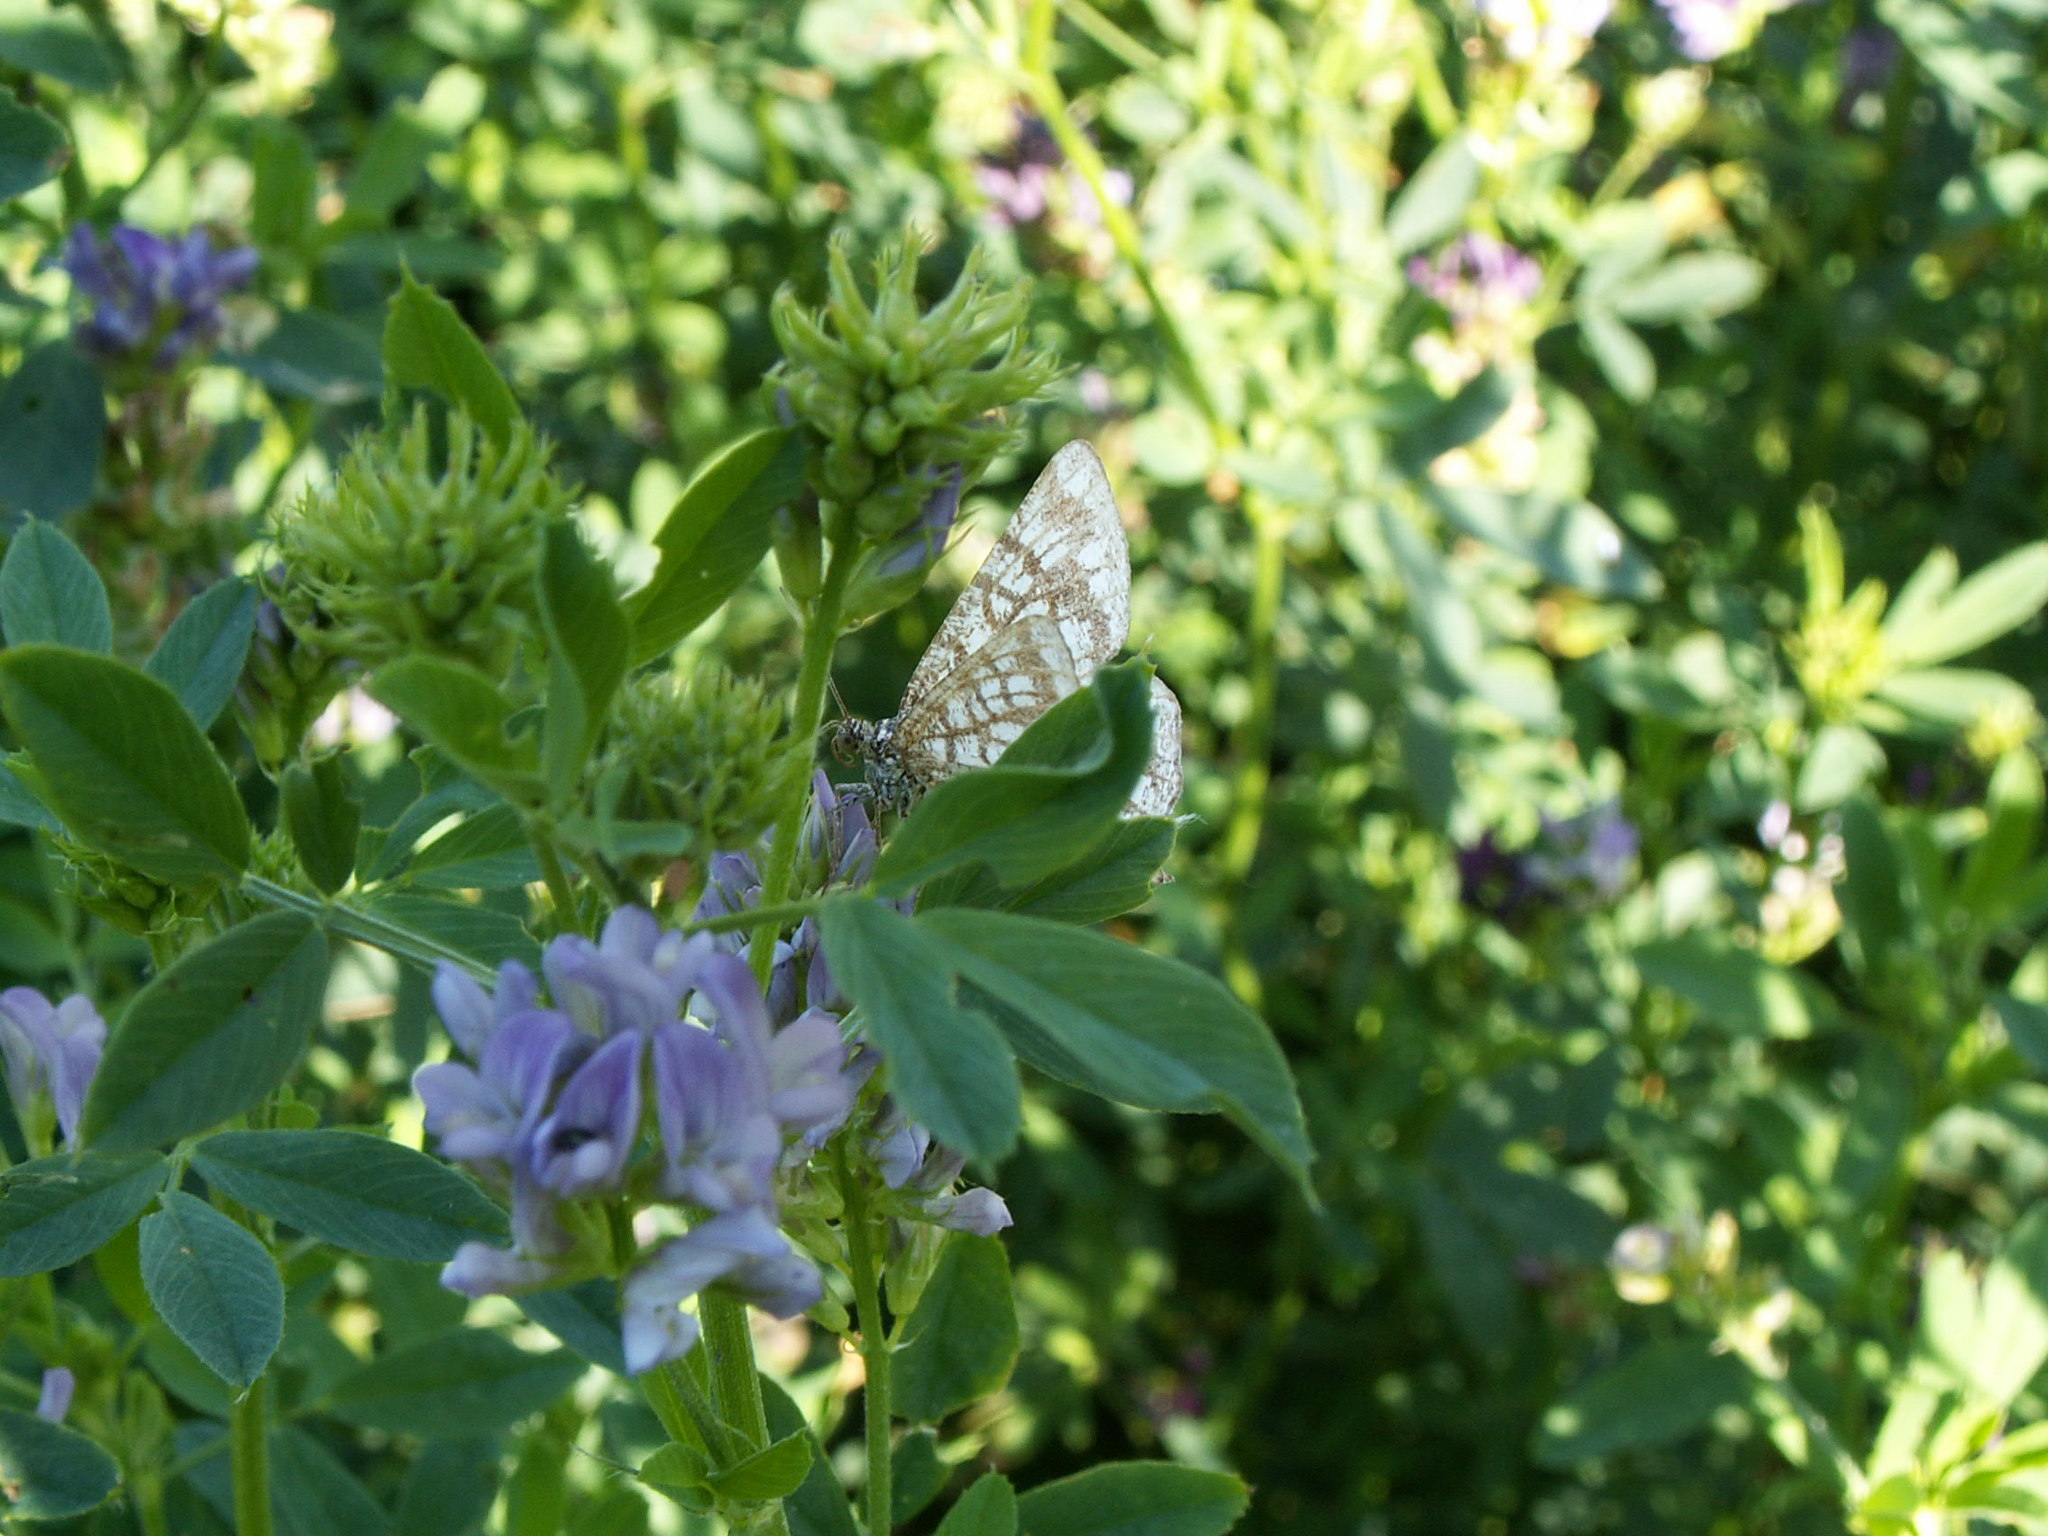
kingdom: Animalia
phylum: Arthropoda
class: Insecta
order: Lepidoptera
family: Geometridae
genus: Chiasmia
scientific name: Chiasmia clathrata
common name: Latticed heath
